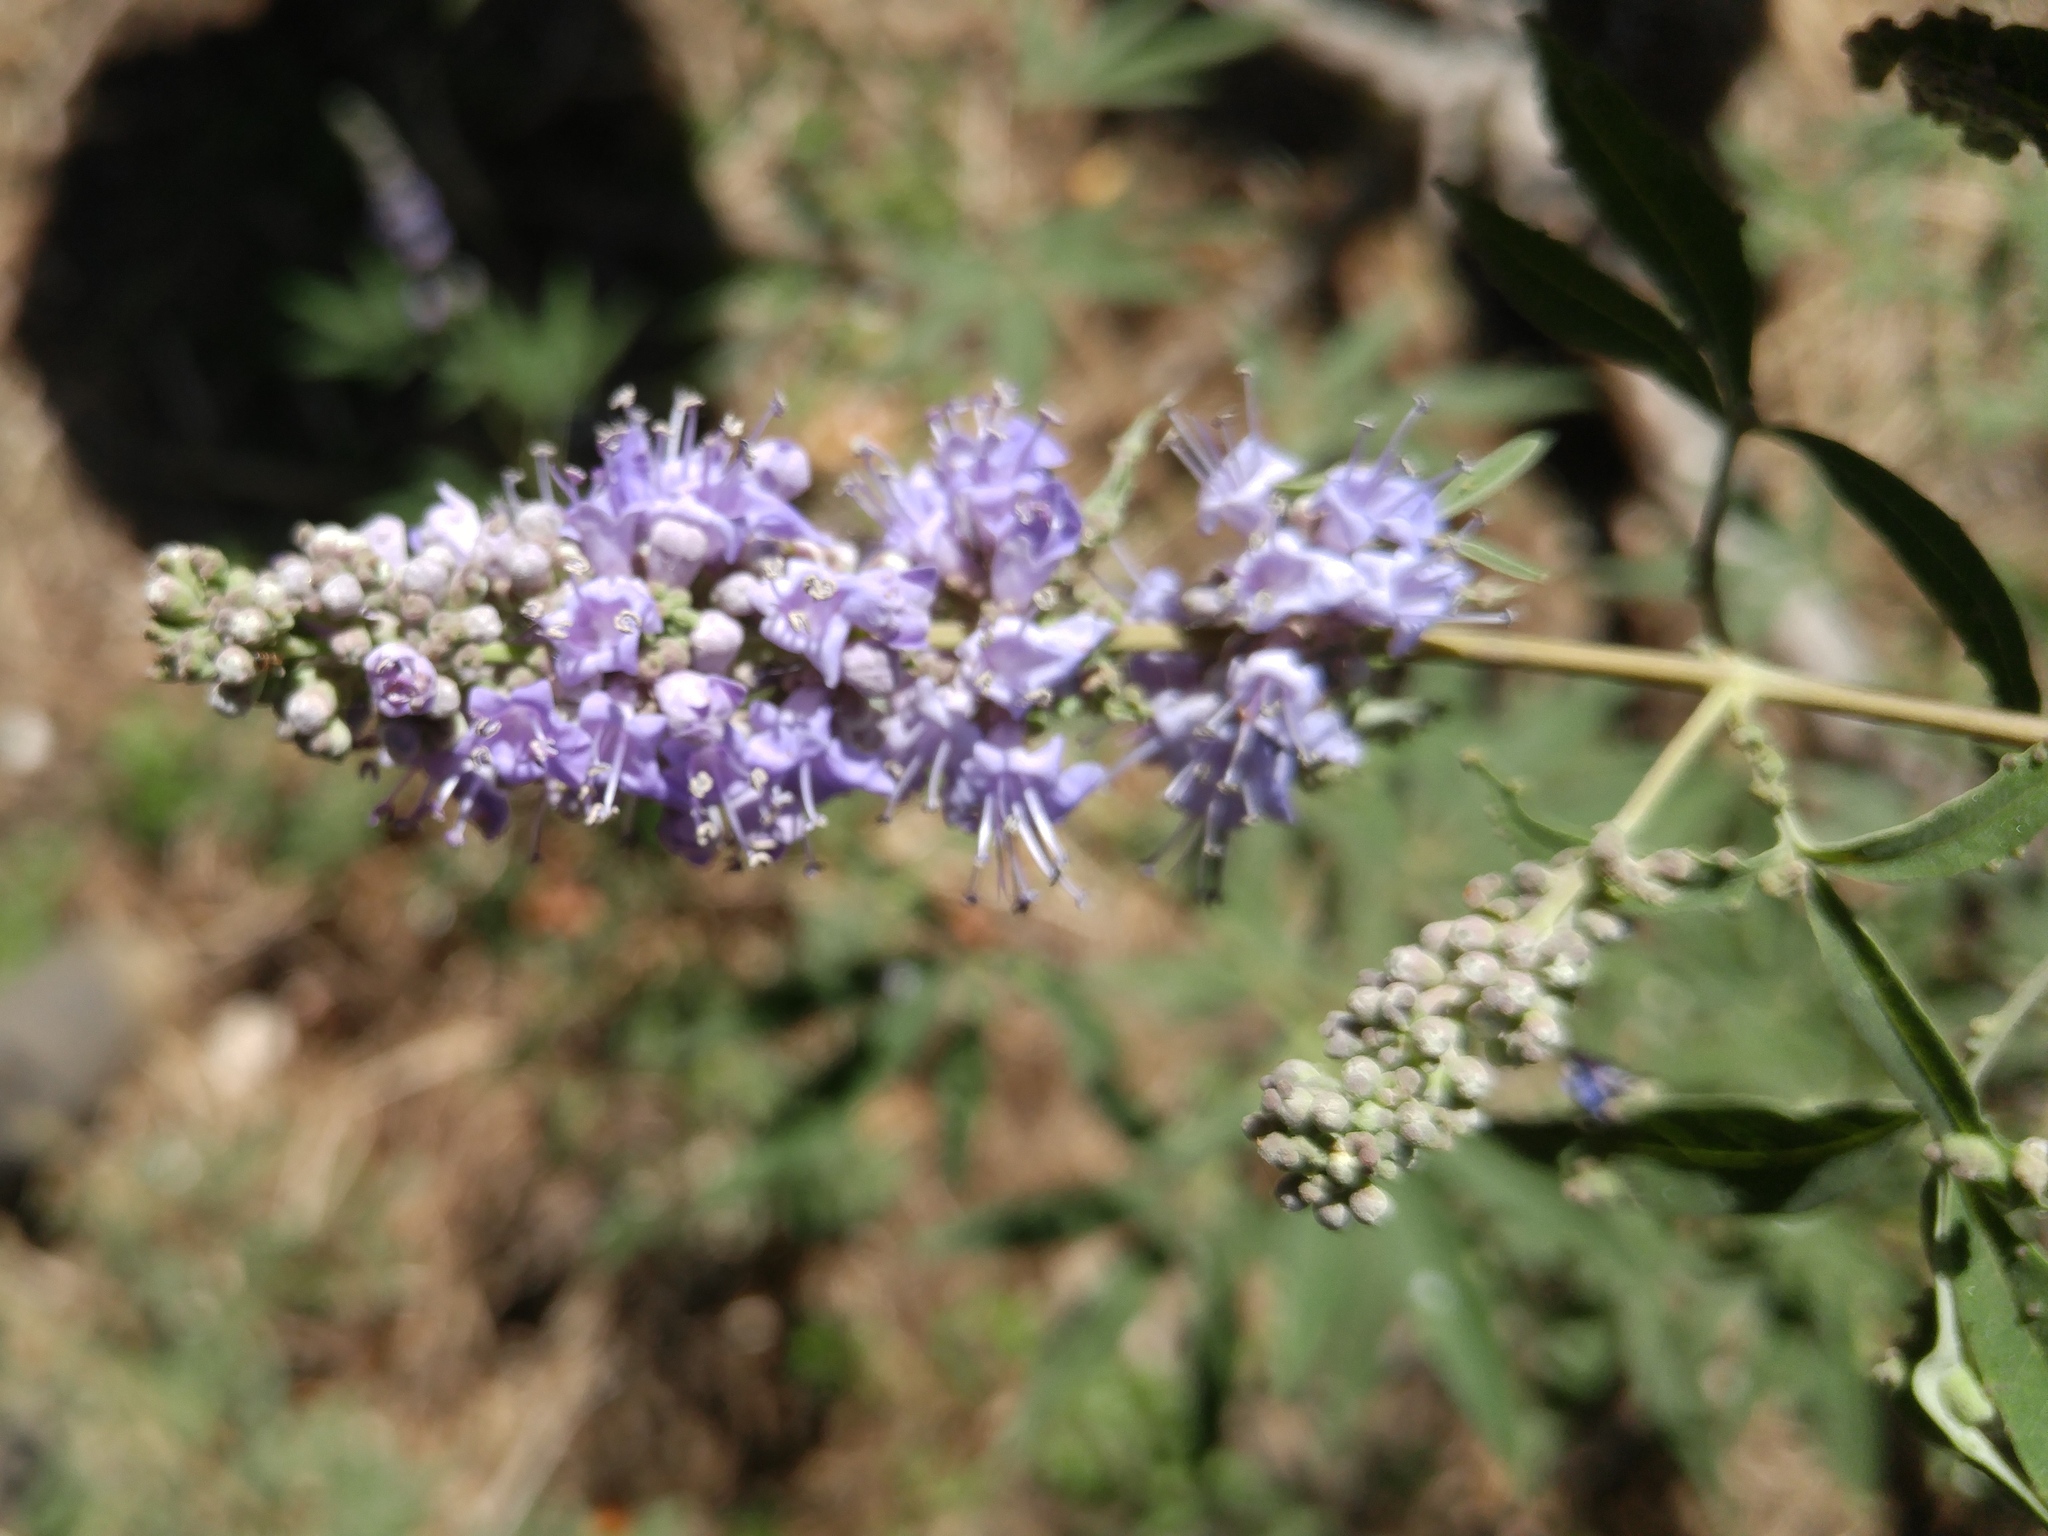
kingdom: Plantae
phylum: Tracheophyta
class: Magnoliopsida
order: Lamiales
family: Lamiaceae
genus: Vitex
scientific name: Vitex agnus-castus
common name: Chasteberry
